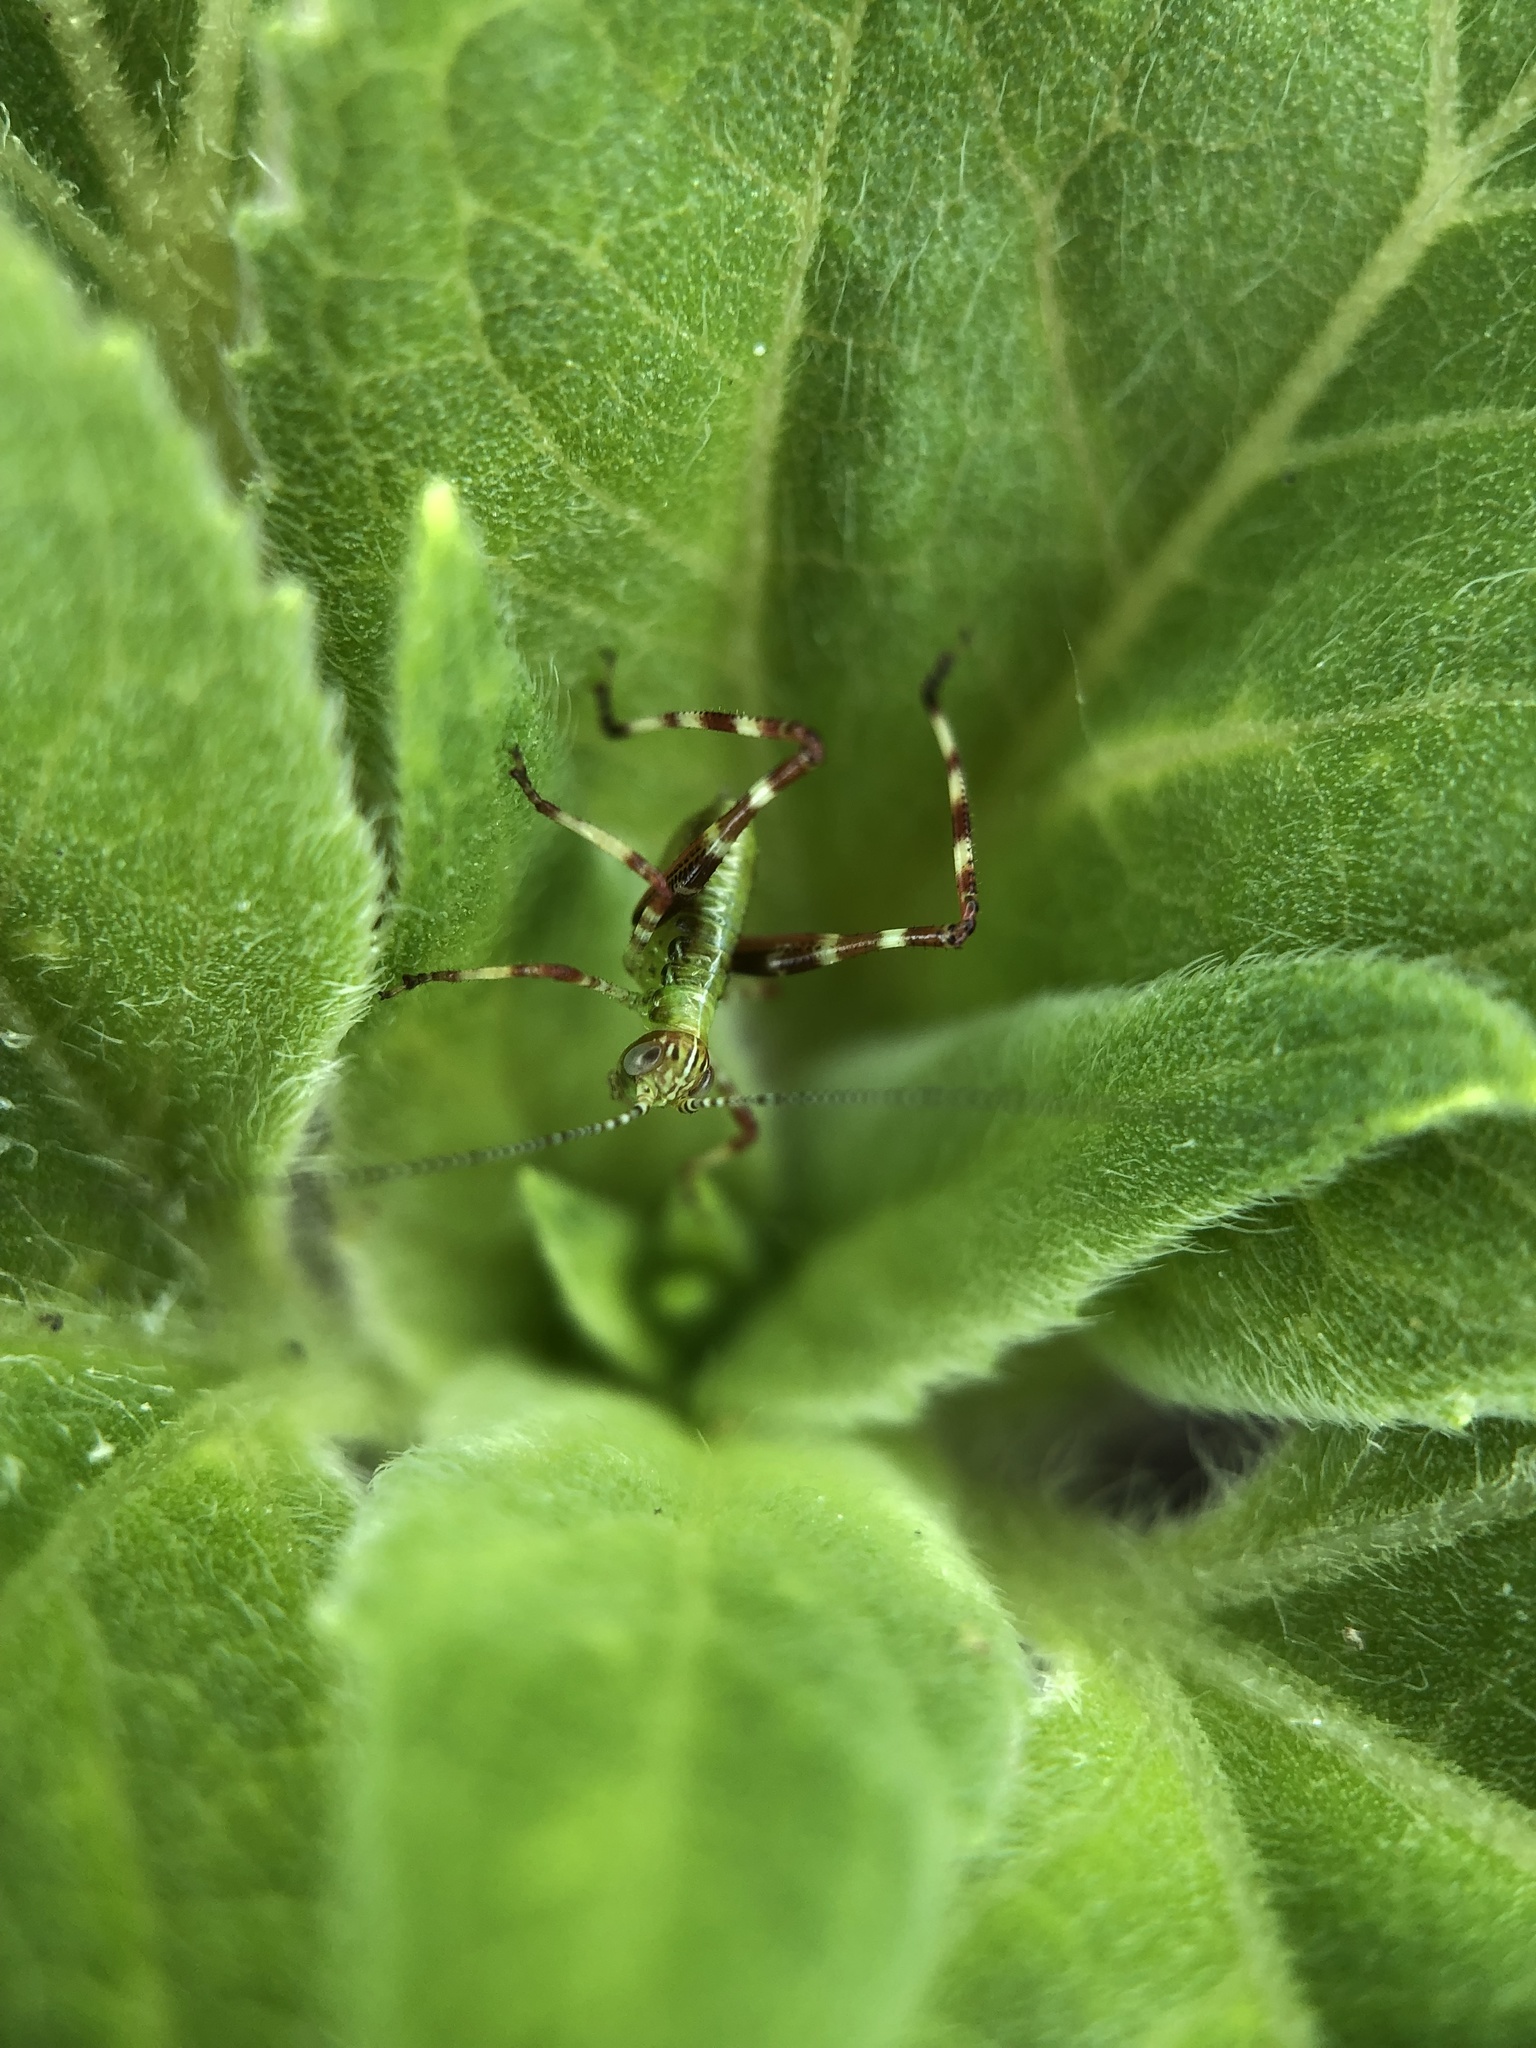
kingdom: Animalia
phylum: Arthropoda
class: Insecta
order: Orthoptera
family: Tettigoniidae
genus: Caedicia
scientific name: Caedicia simplex
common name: Common garden katydid
